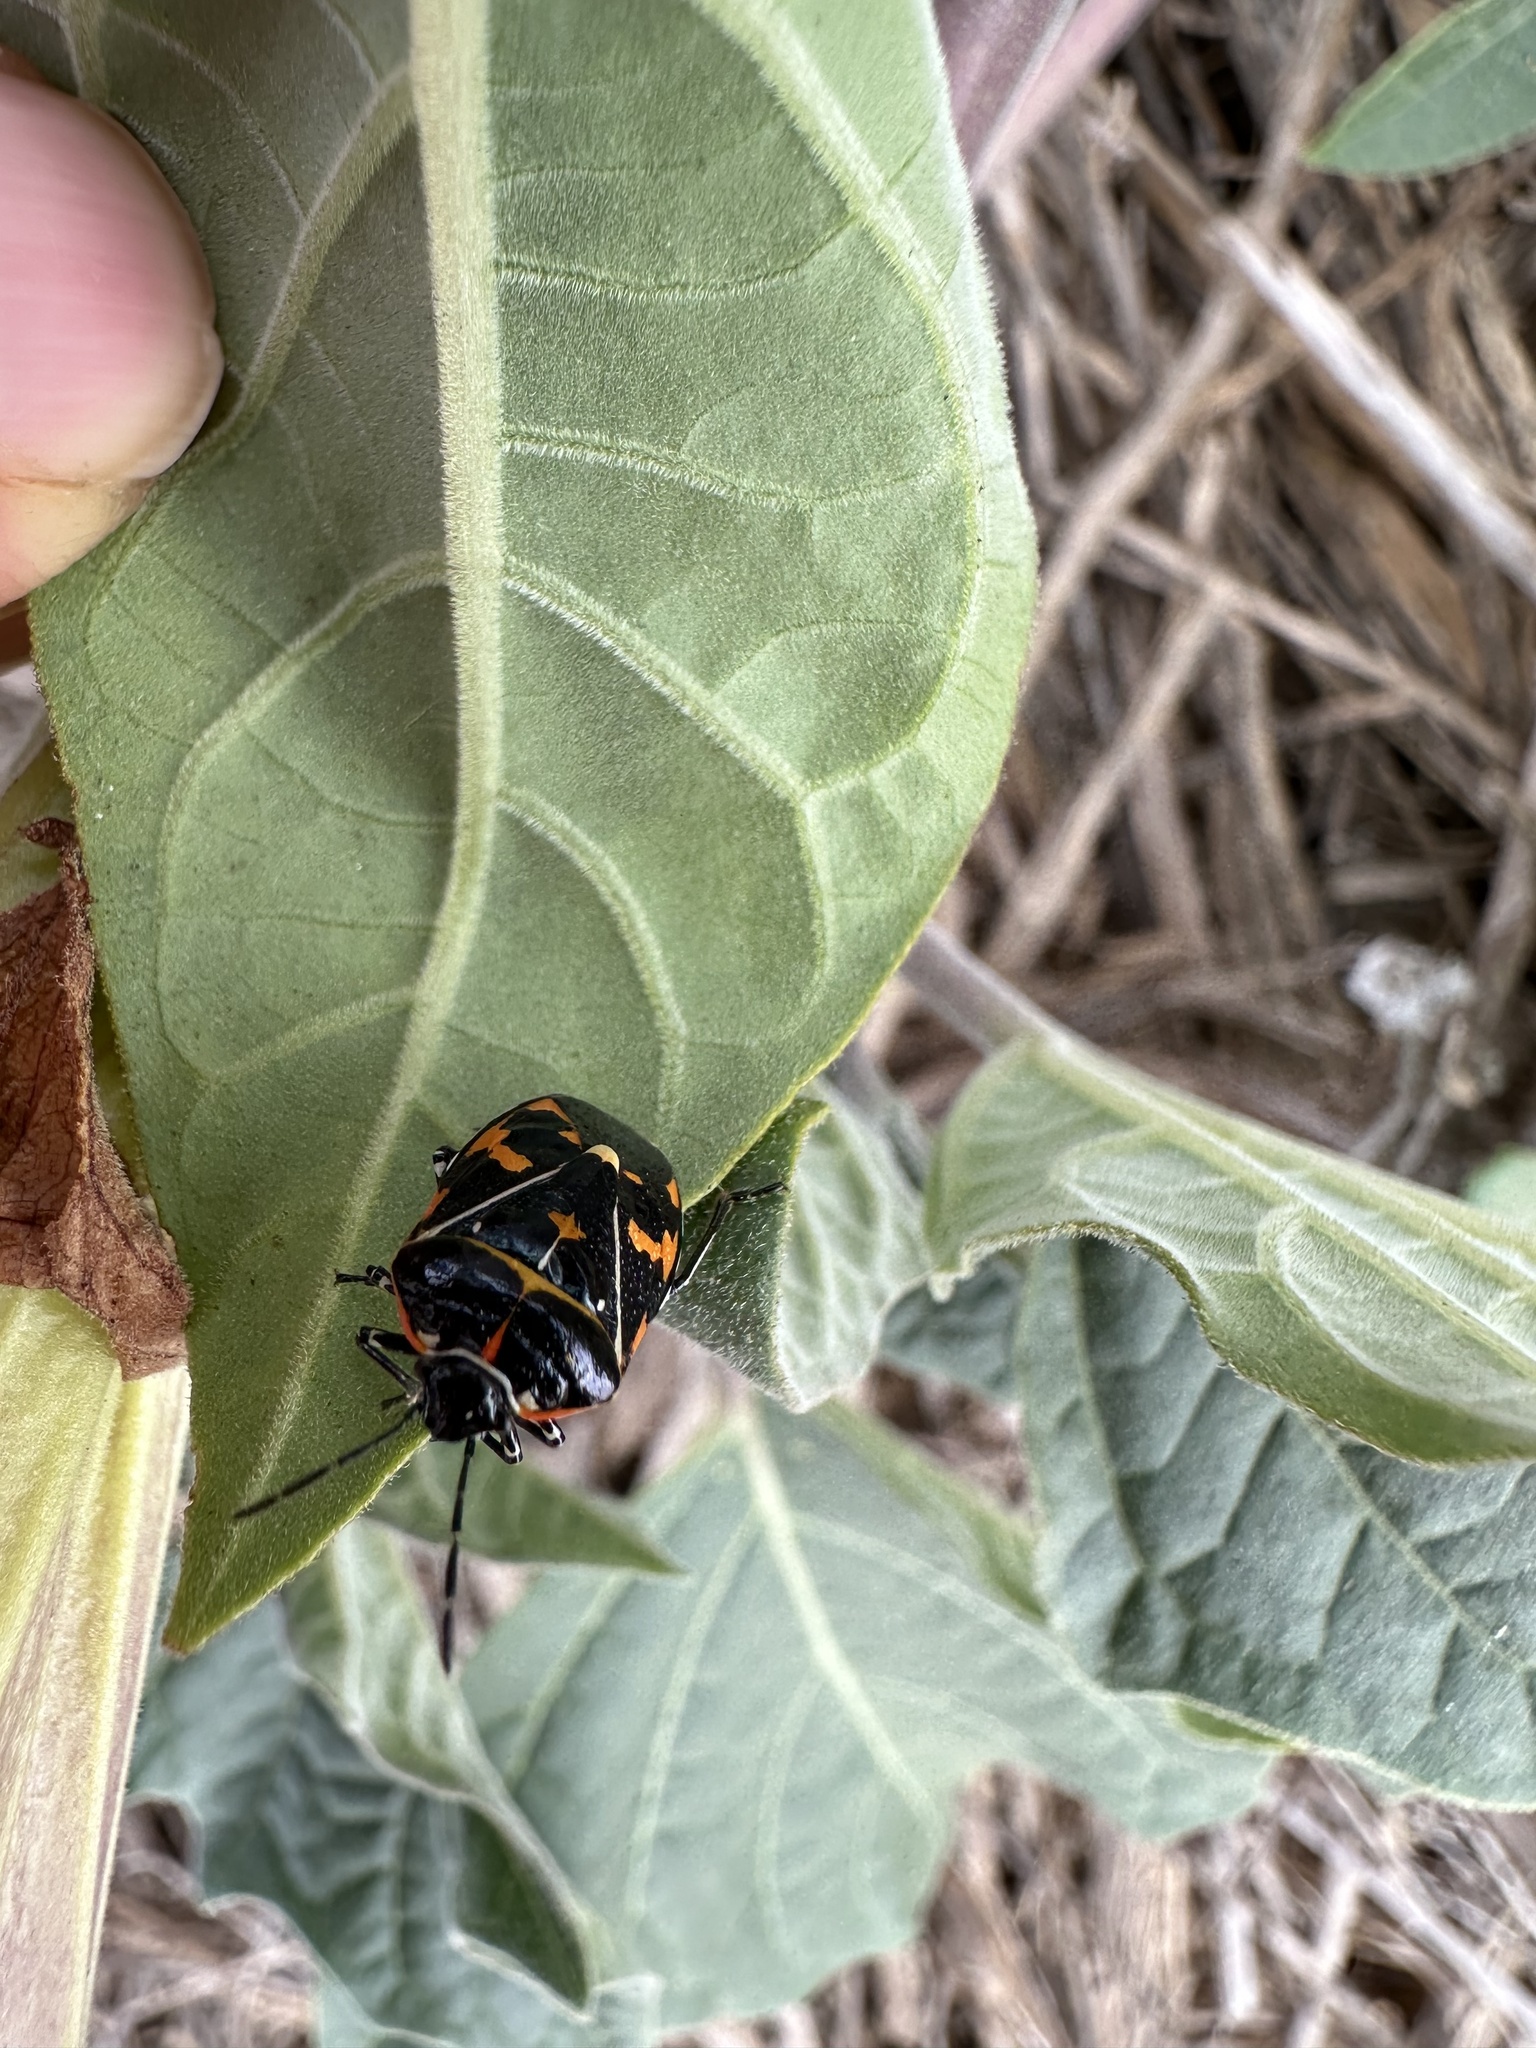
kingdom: Animalia
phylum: Arthropoda
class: Insecta
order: Hemiptera
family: Pentatomidae
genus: Murgantia
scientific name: Murgantia histrionica
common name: Harlequin bug
